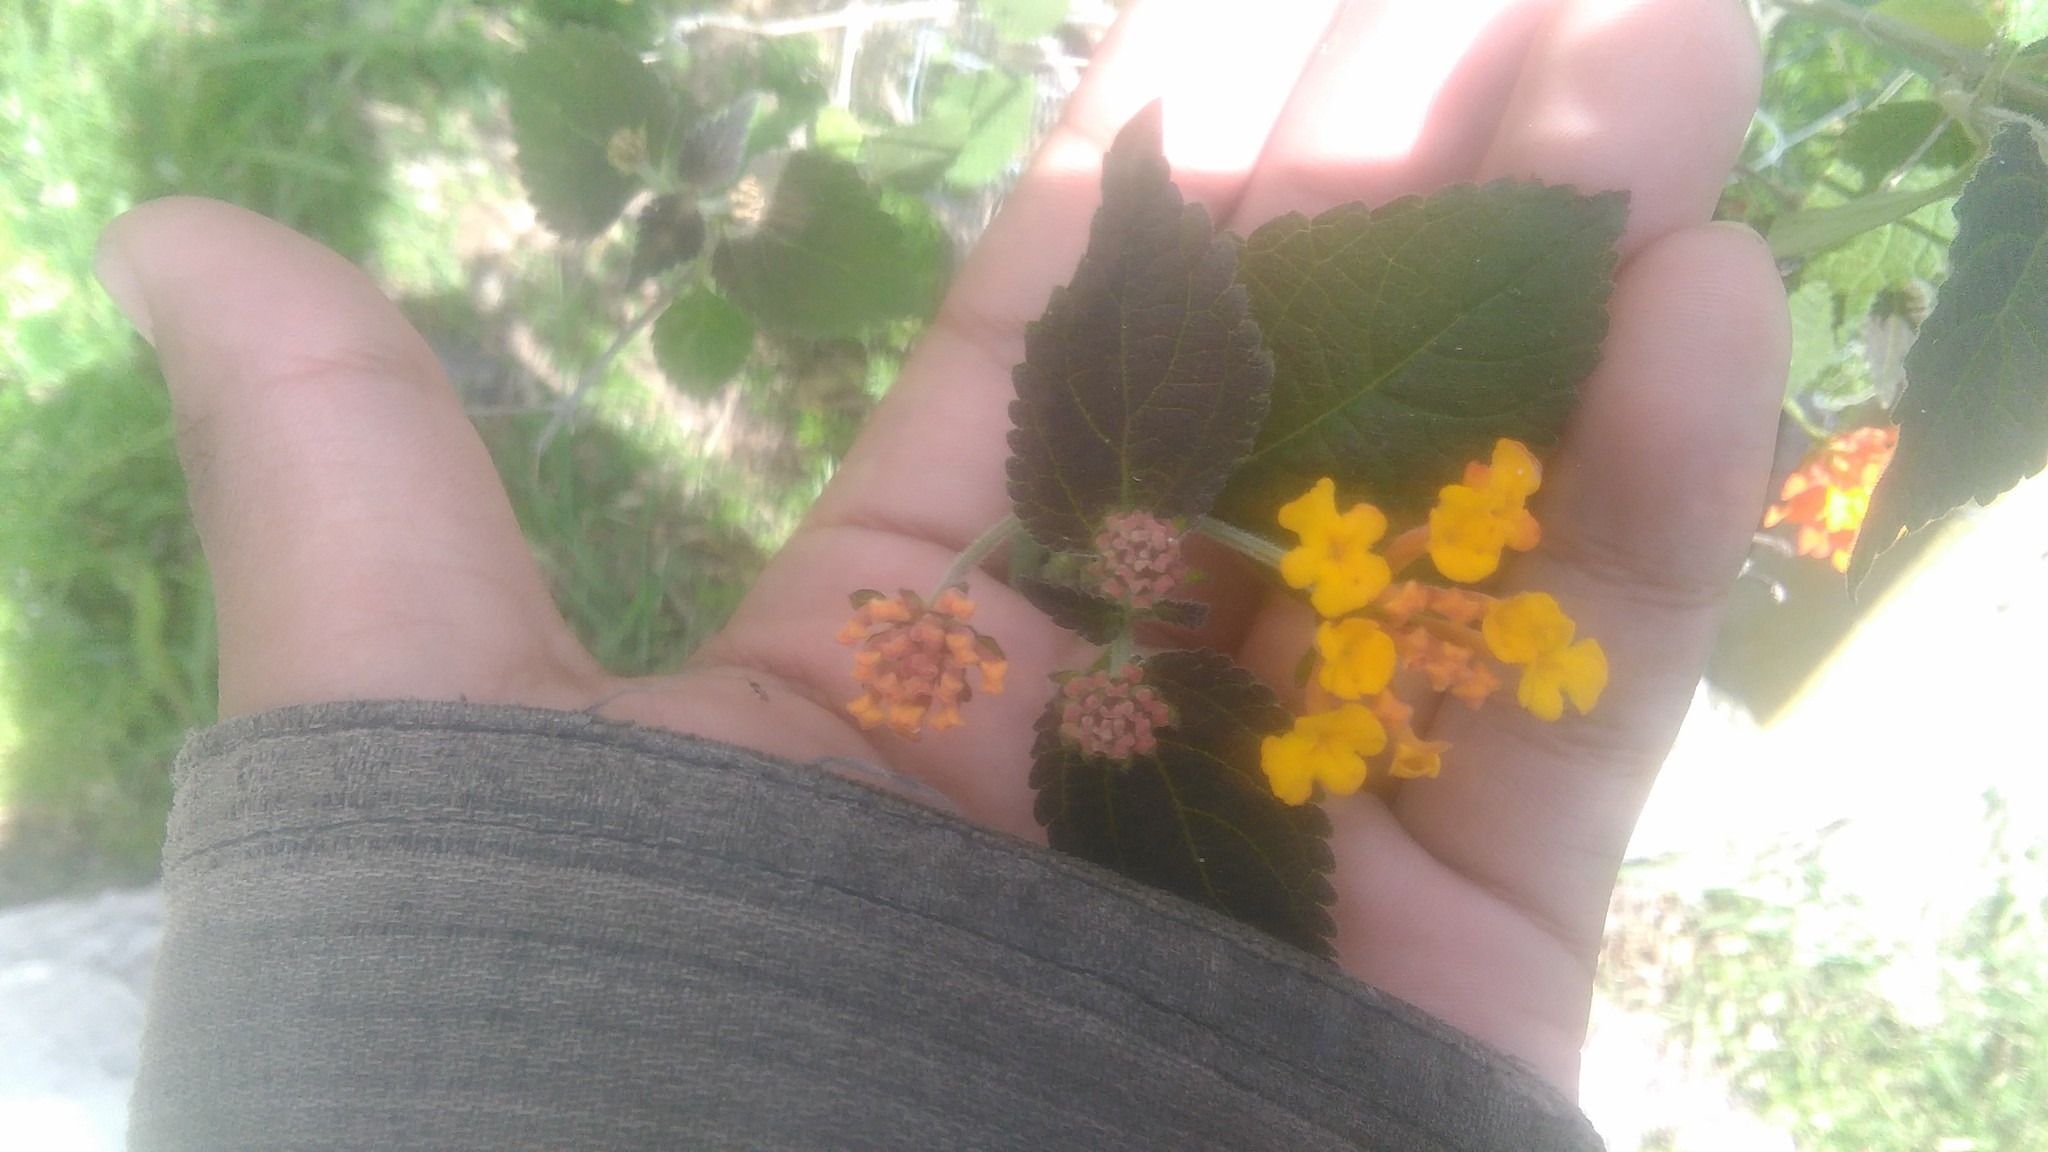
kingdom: Plantae
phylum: Tracheophyta
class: Magnoliopsida
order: Lamiales
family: Verbenaceae
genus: Lantana
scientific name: Lantana camara
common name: Lantana
